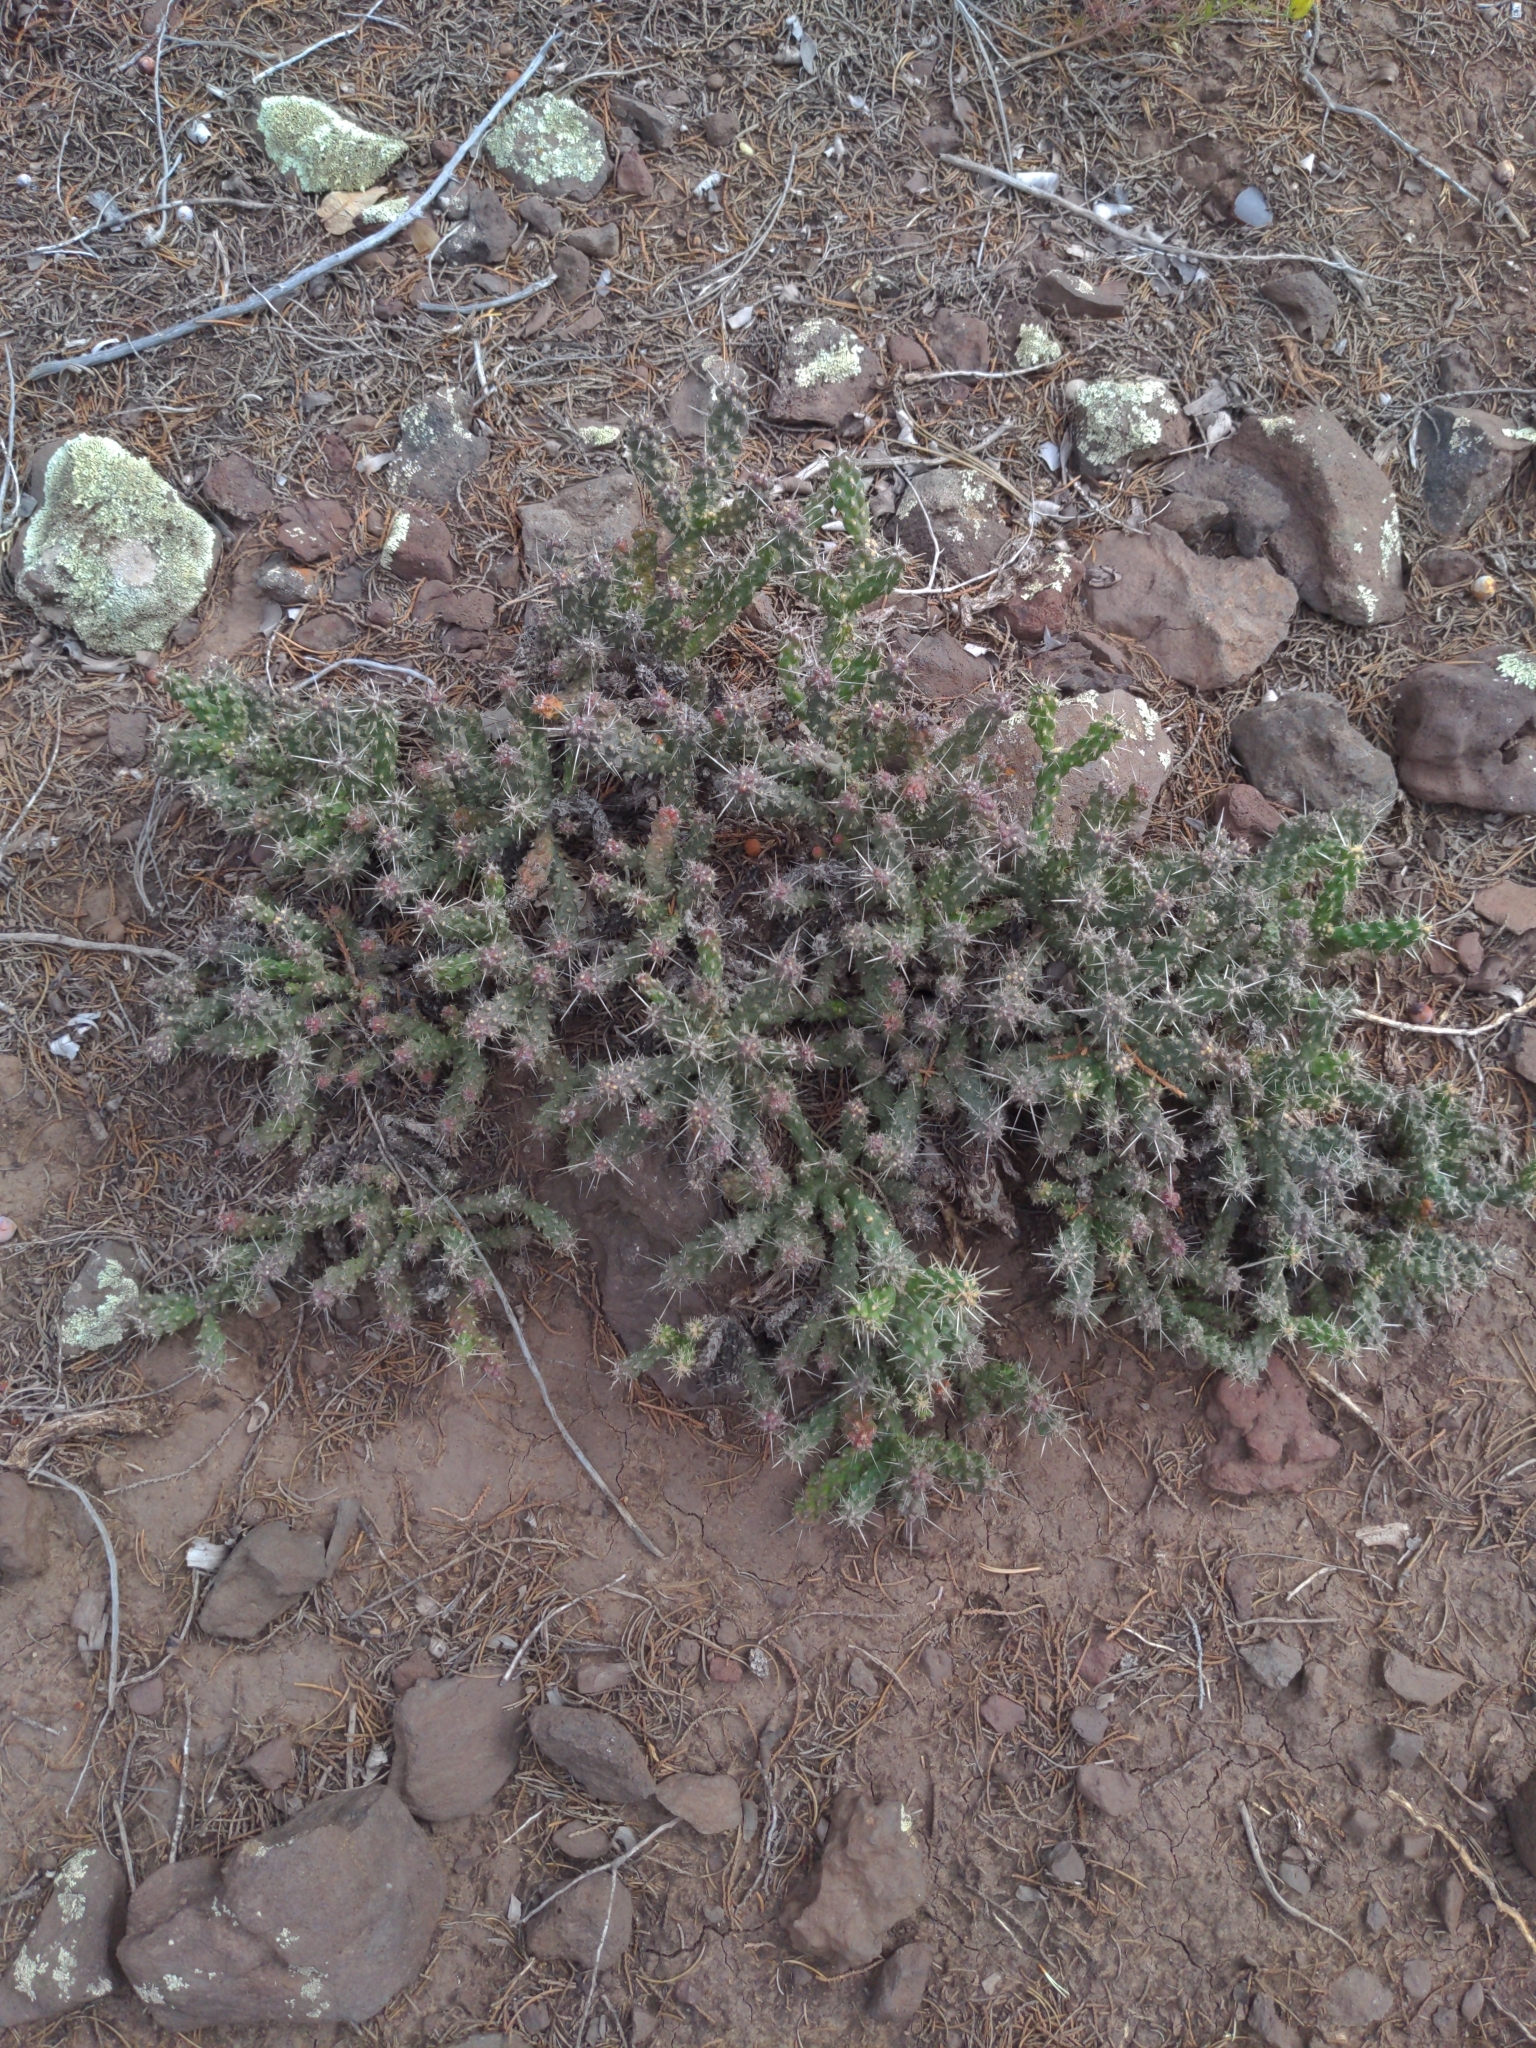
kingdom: Plantae
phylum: Tracheophyta
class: Magnoliopsida
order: Caryophyllales
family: Cactaceae
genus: Cylindropuntia
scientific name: Cylindropuntia whipplei
